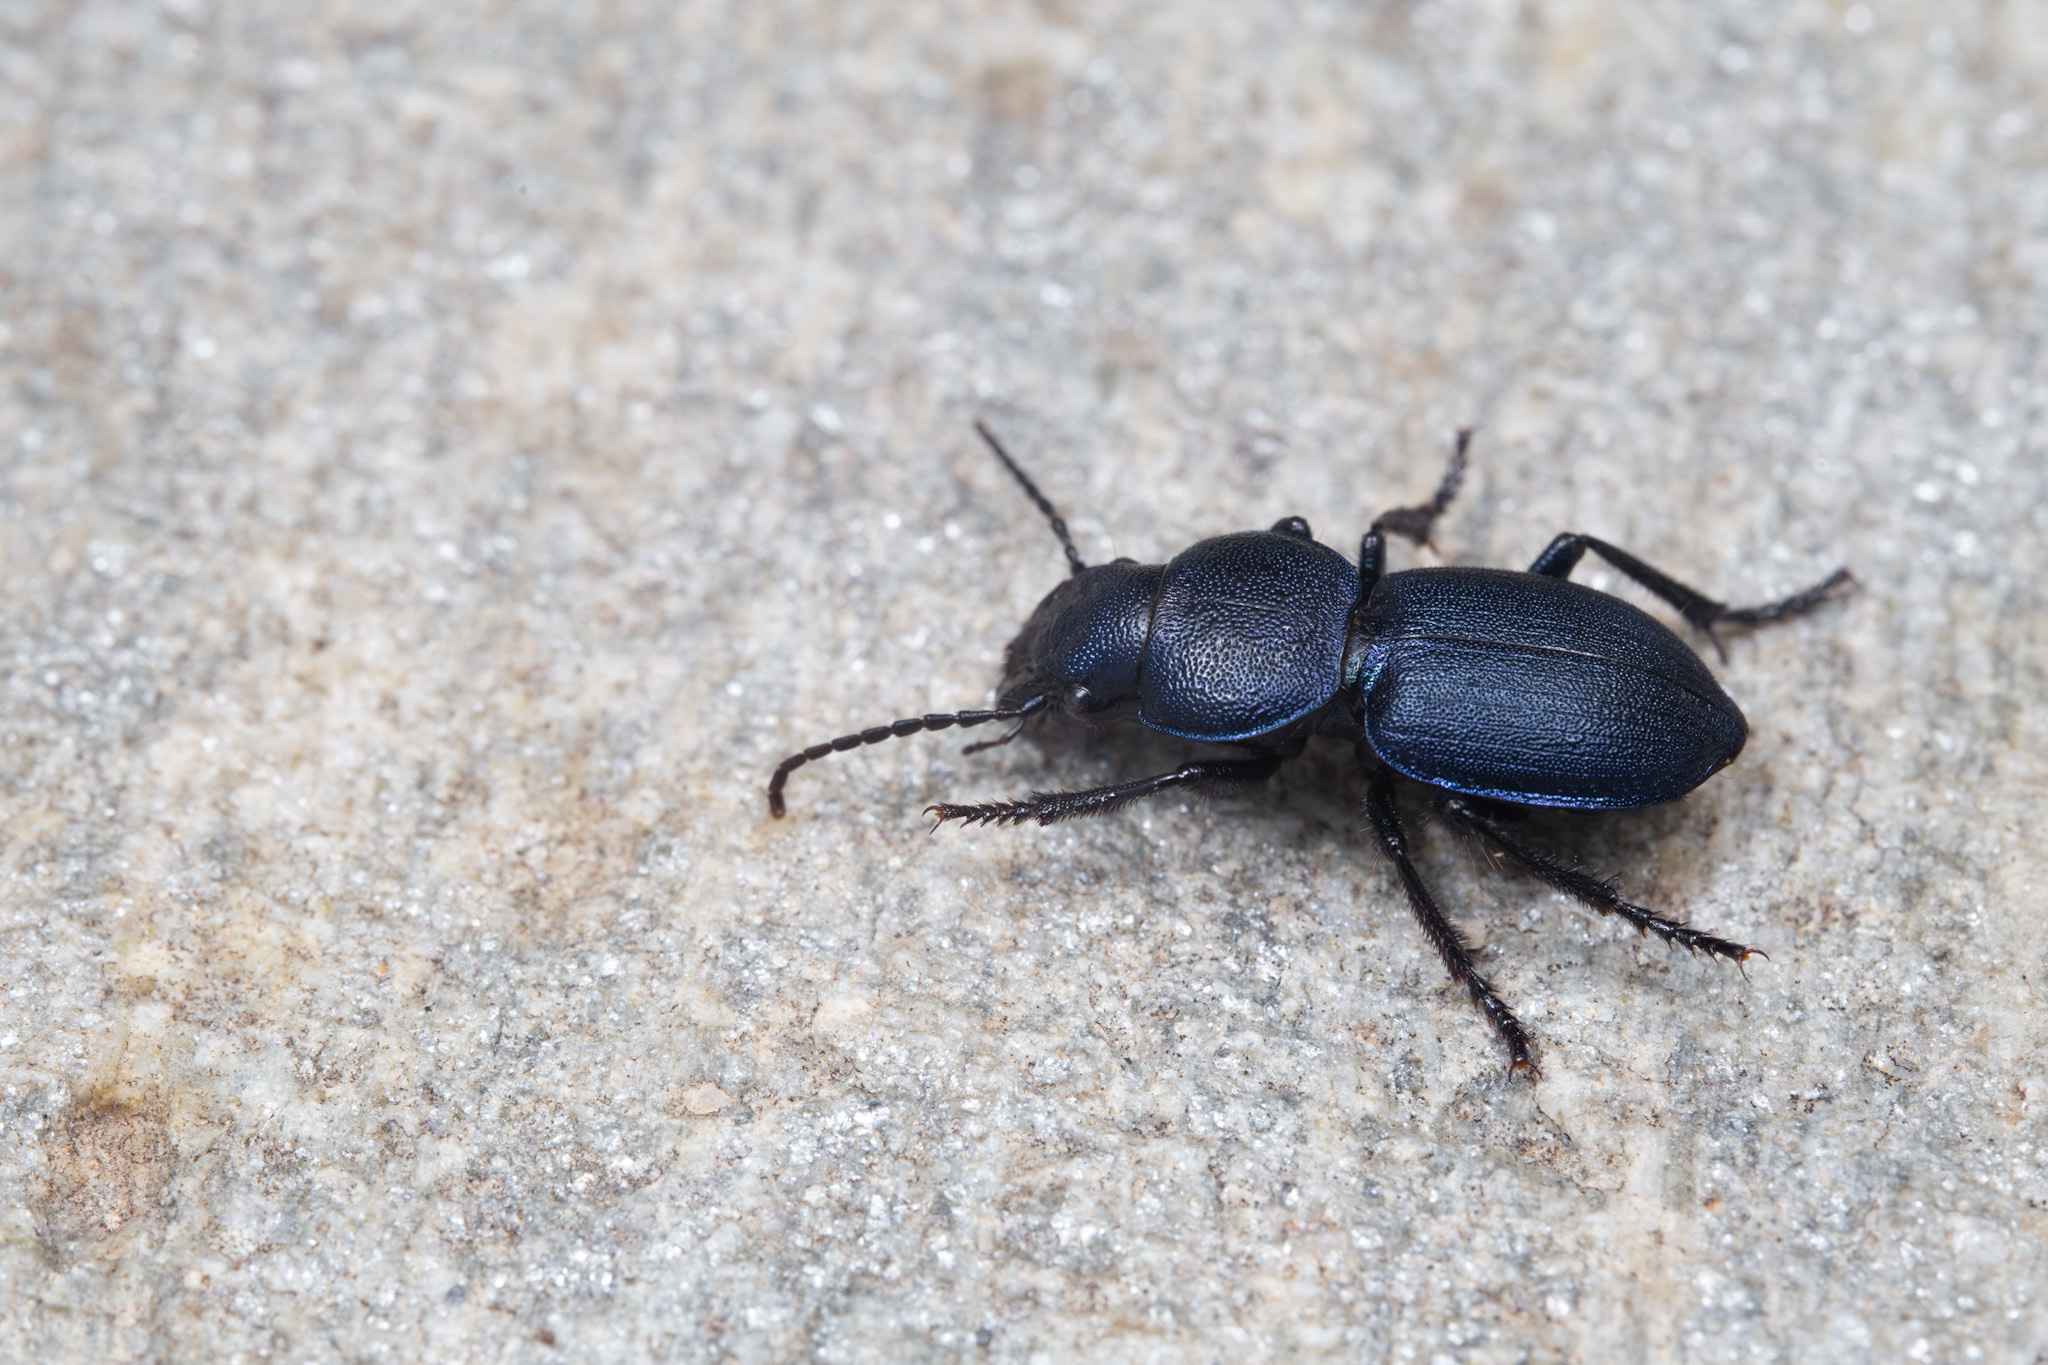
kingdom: Animalia
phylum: Arthropoda
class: Insecta
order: Coleoptera
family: Carabidae
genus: Pachycarus
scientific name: Pachycarus cyaneus
